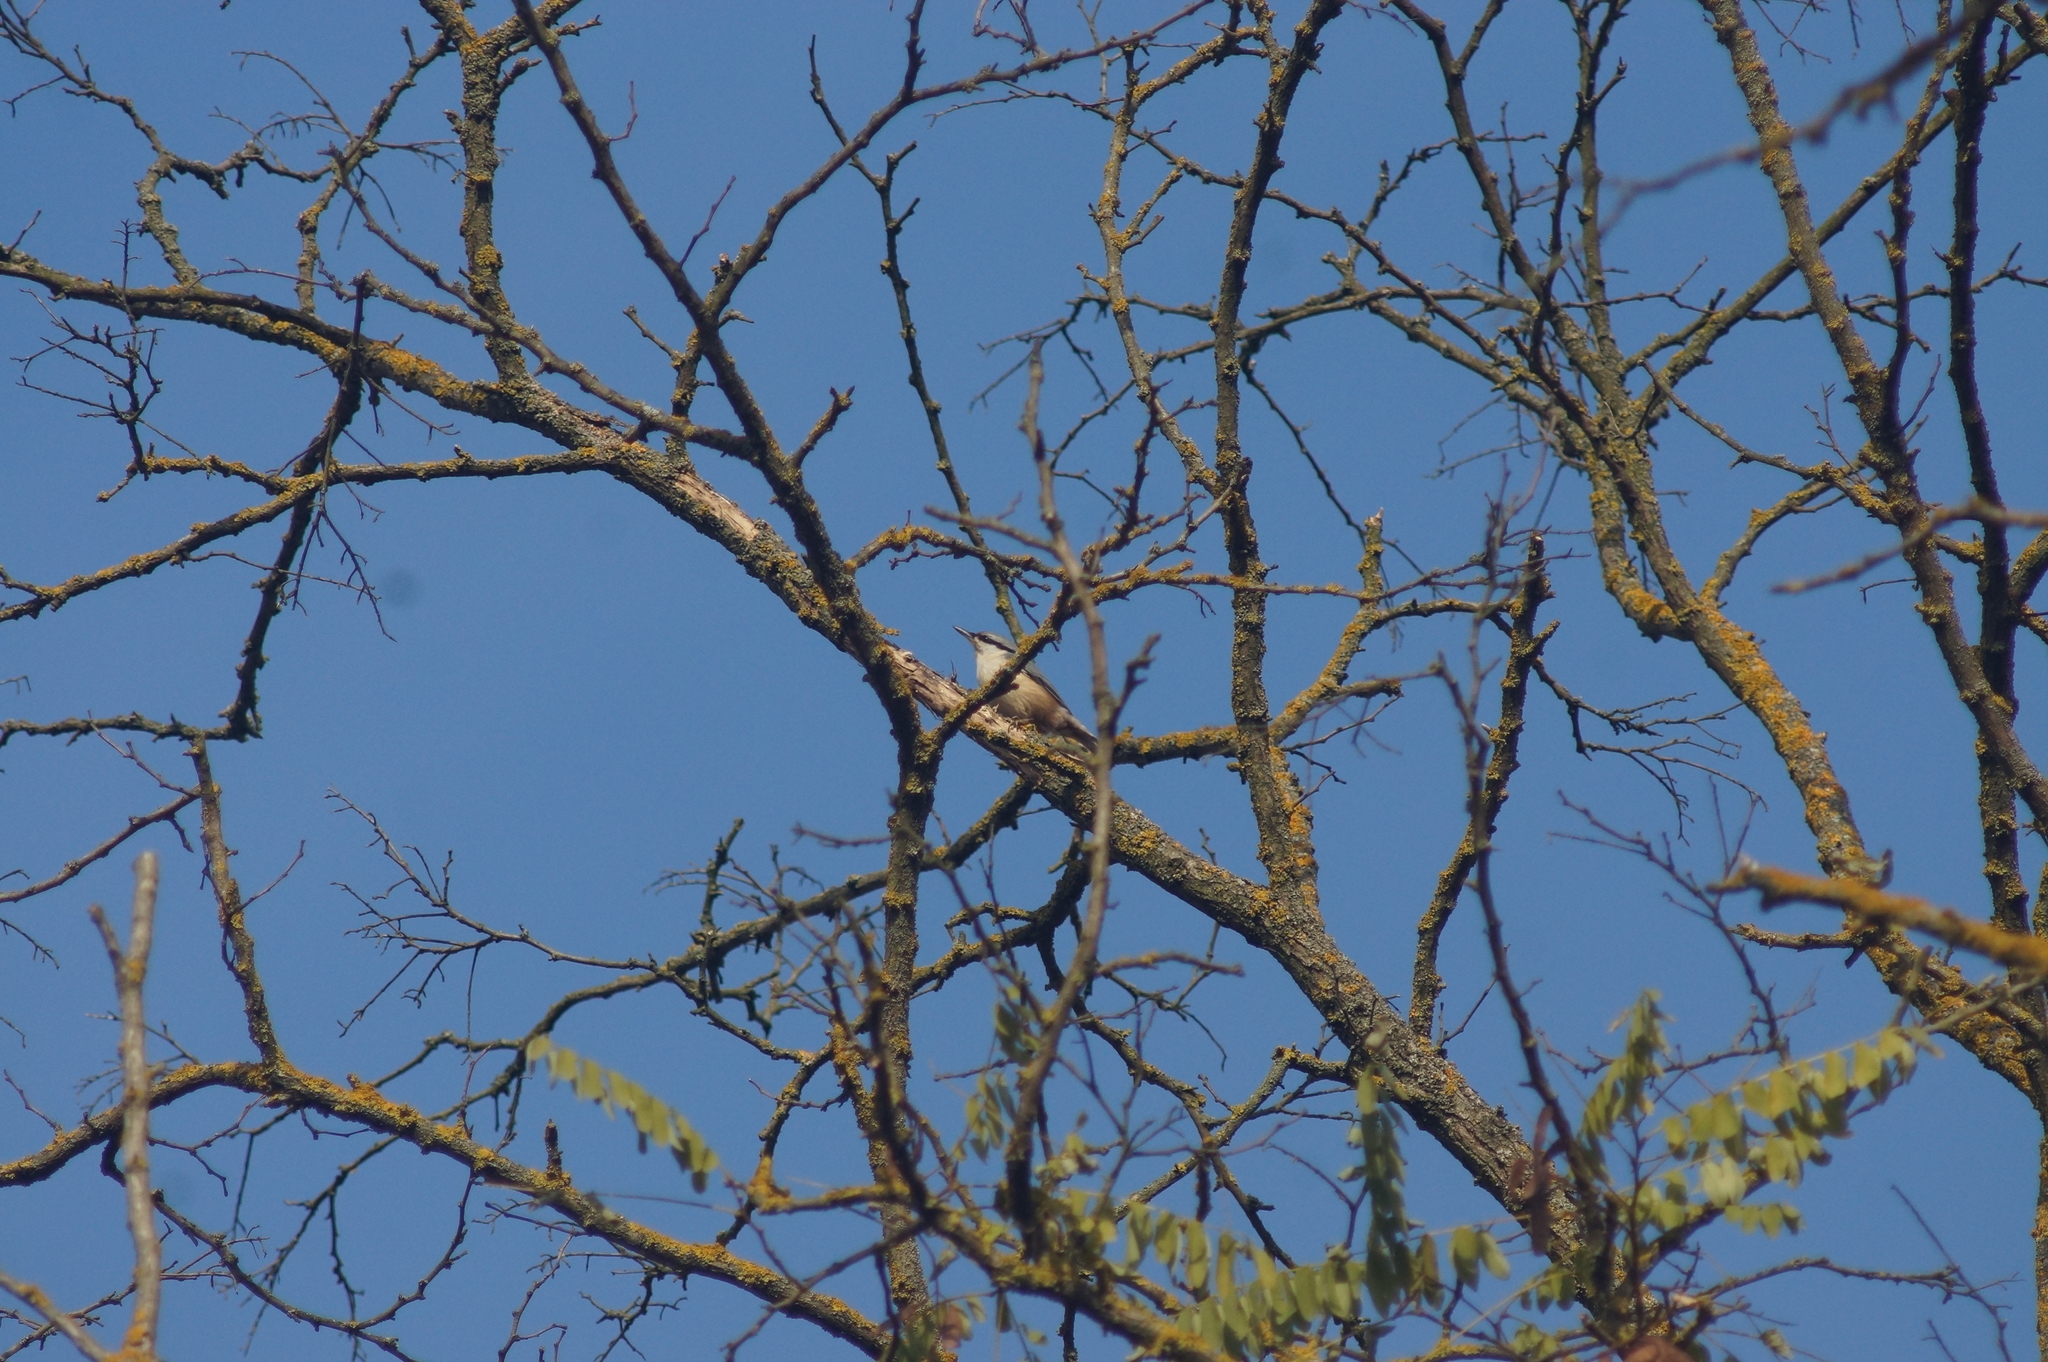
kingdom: Animalia
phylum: Chordata
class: Aves
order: Passeriformes
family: Sittidae
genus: Sitta
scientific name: Sitta europaea
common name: Eurasian nuthatch
